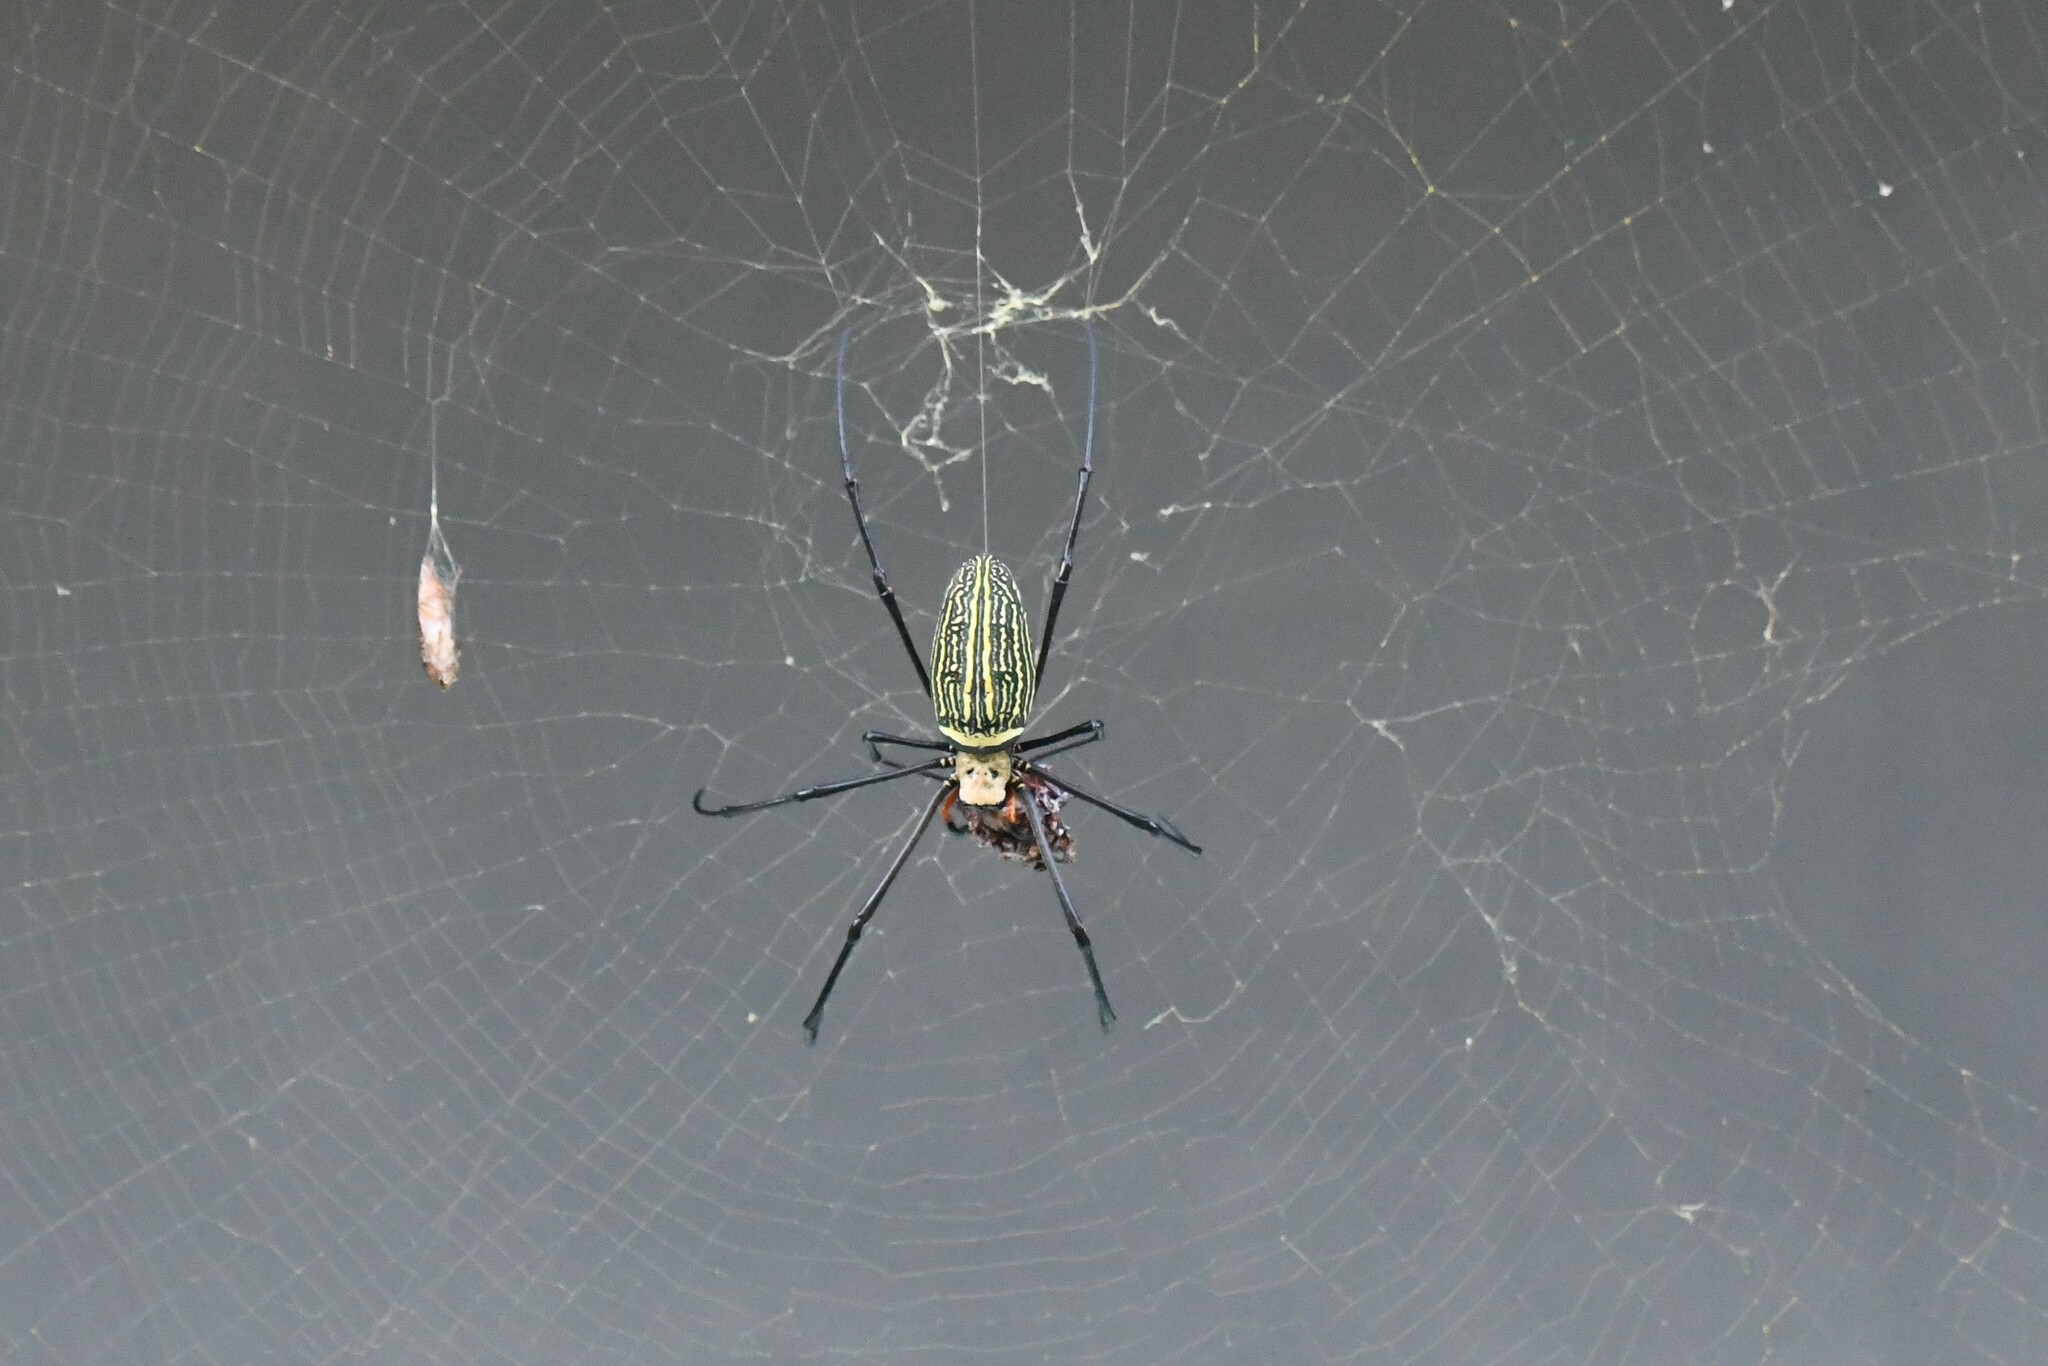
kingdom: Animalia
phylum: Arthropoda
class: Arachnida
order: Araneae
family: Araneidae
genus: Nephila
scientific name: Nephila pilipes
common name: Giant golden orb weaver
